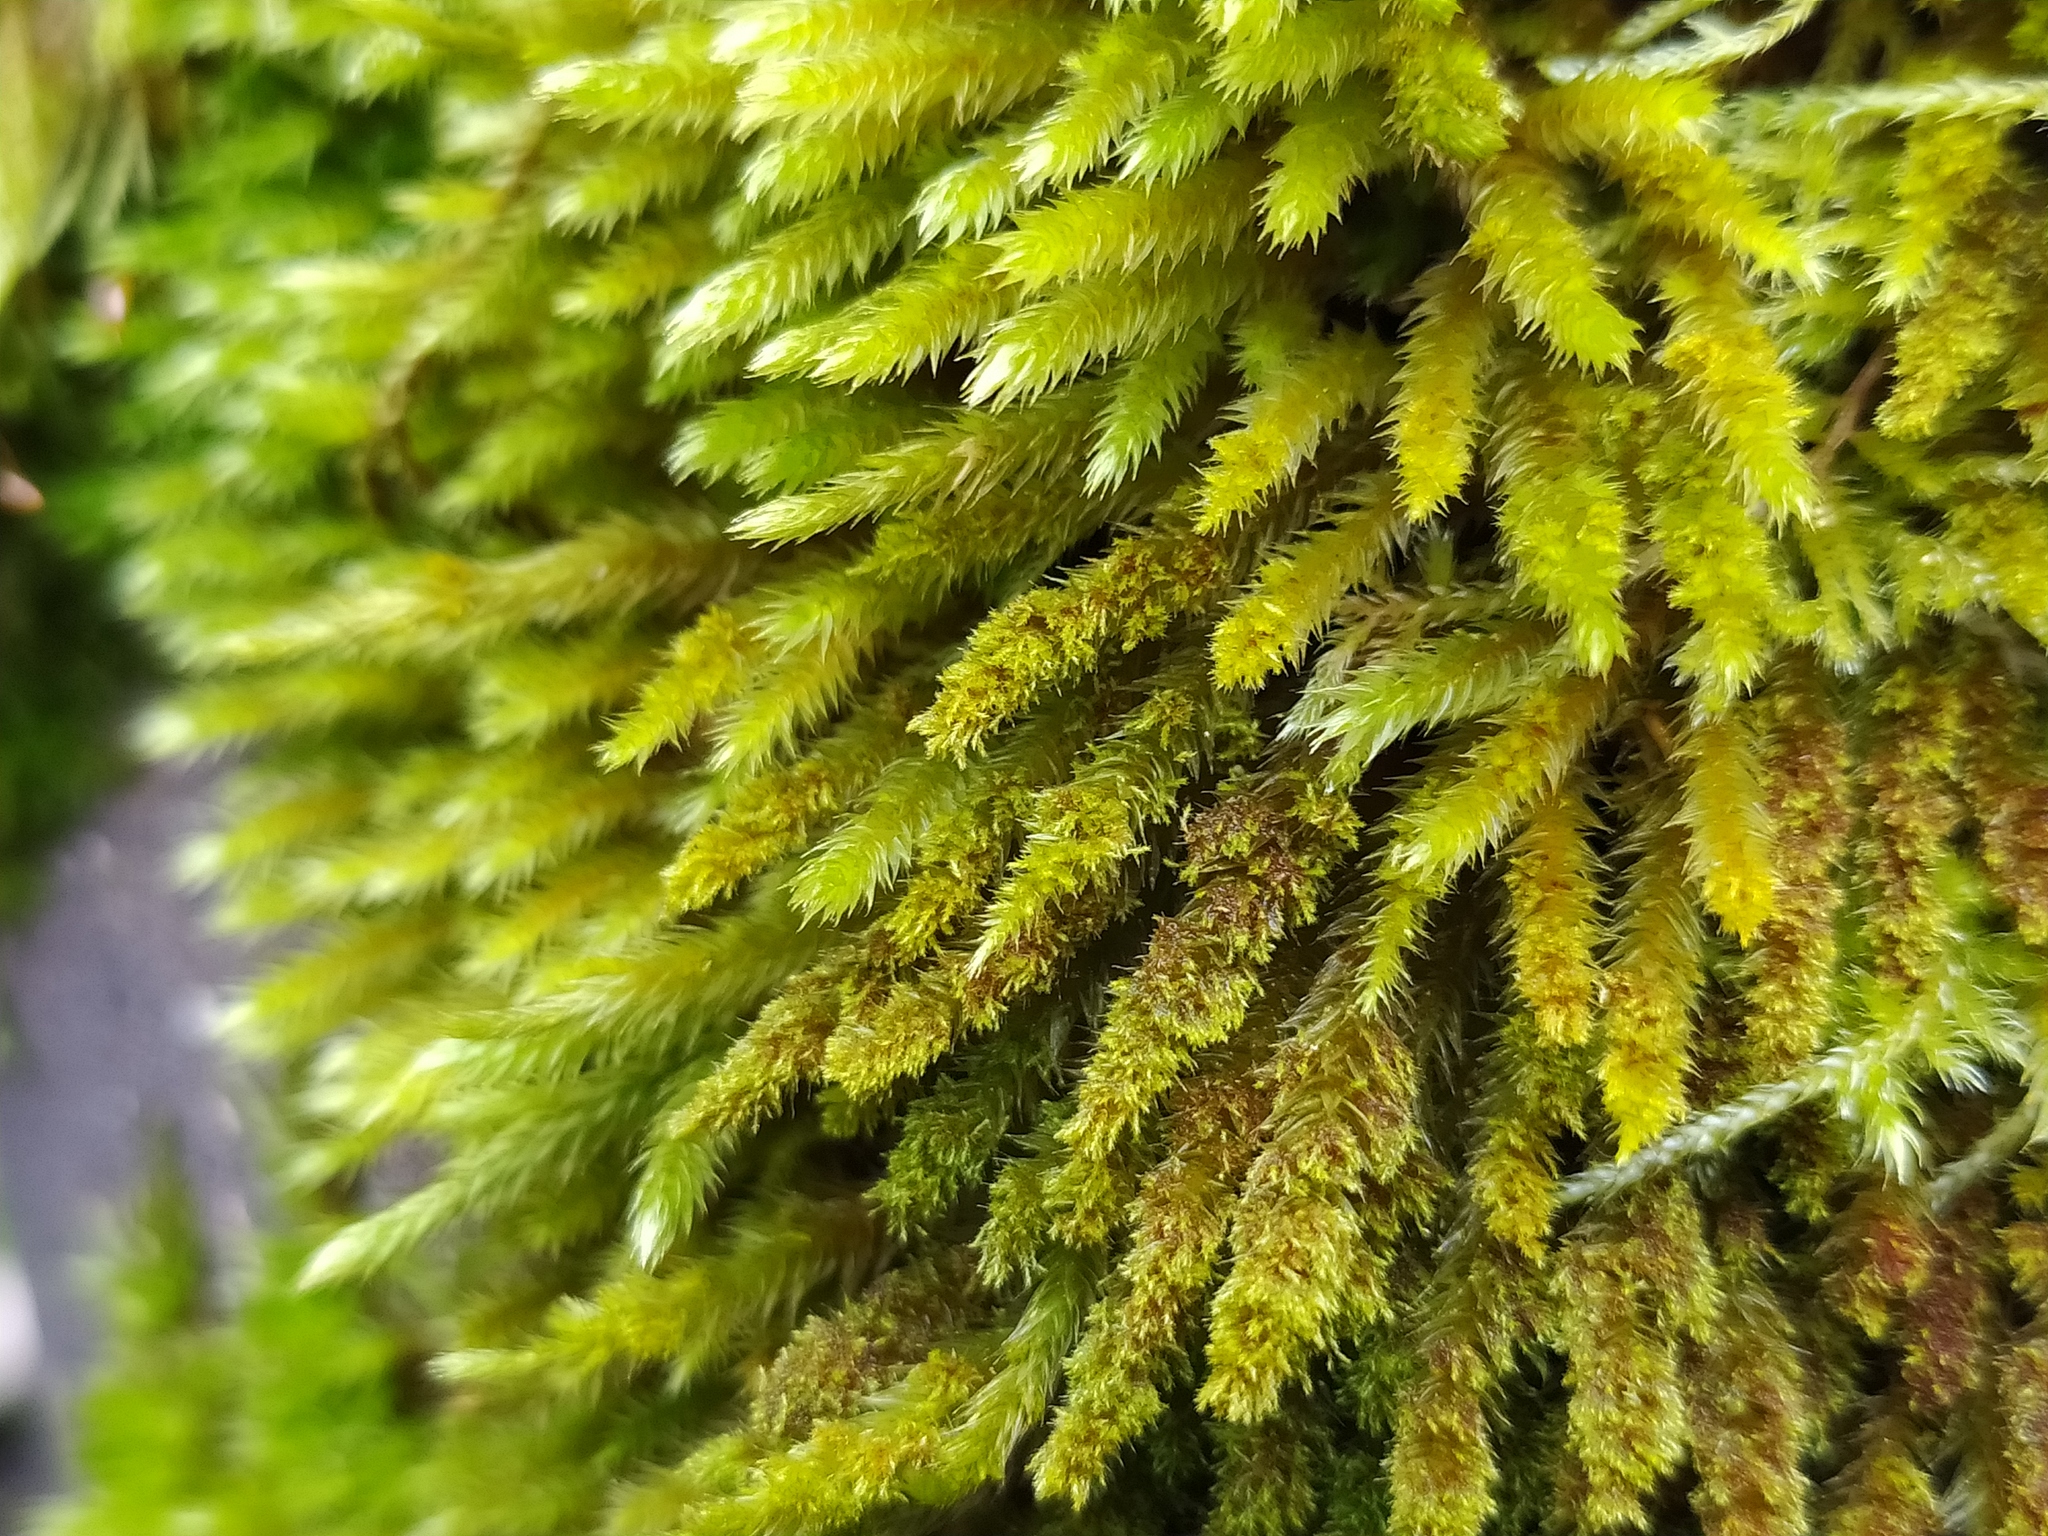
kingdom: Plantae
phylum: Bryophyta
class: Bryopsida
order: Hypnales
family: Leucodontaceae
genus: Leucodon
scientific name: Leucodon sciuroides
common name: Squirrel-tail moss
